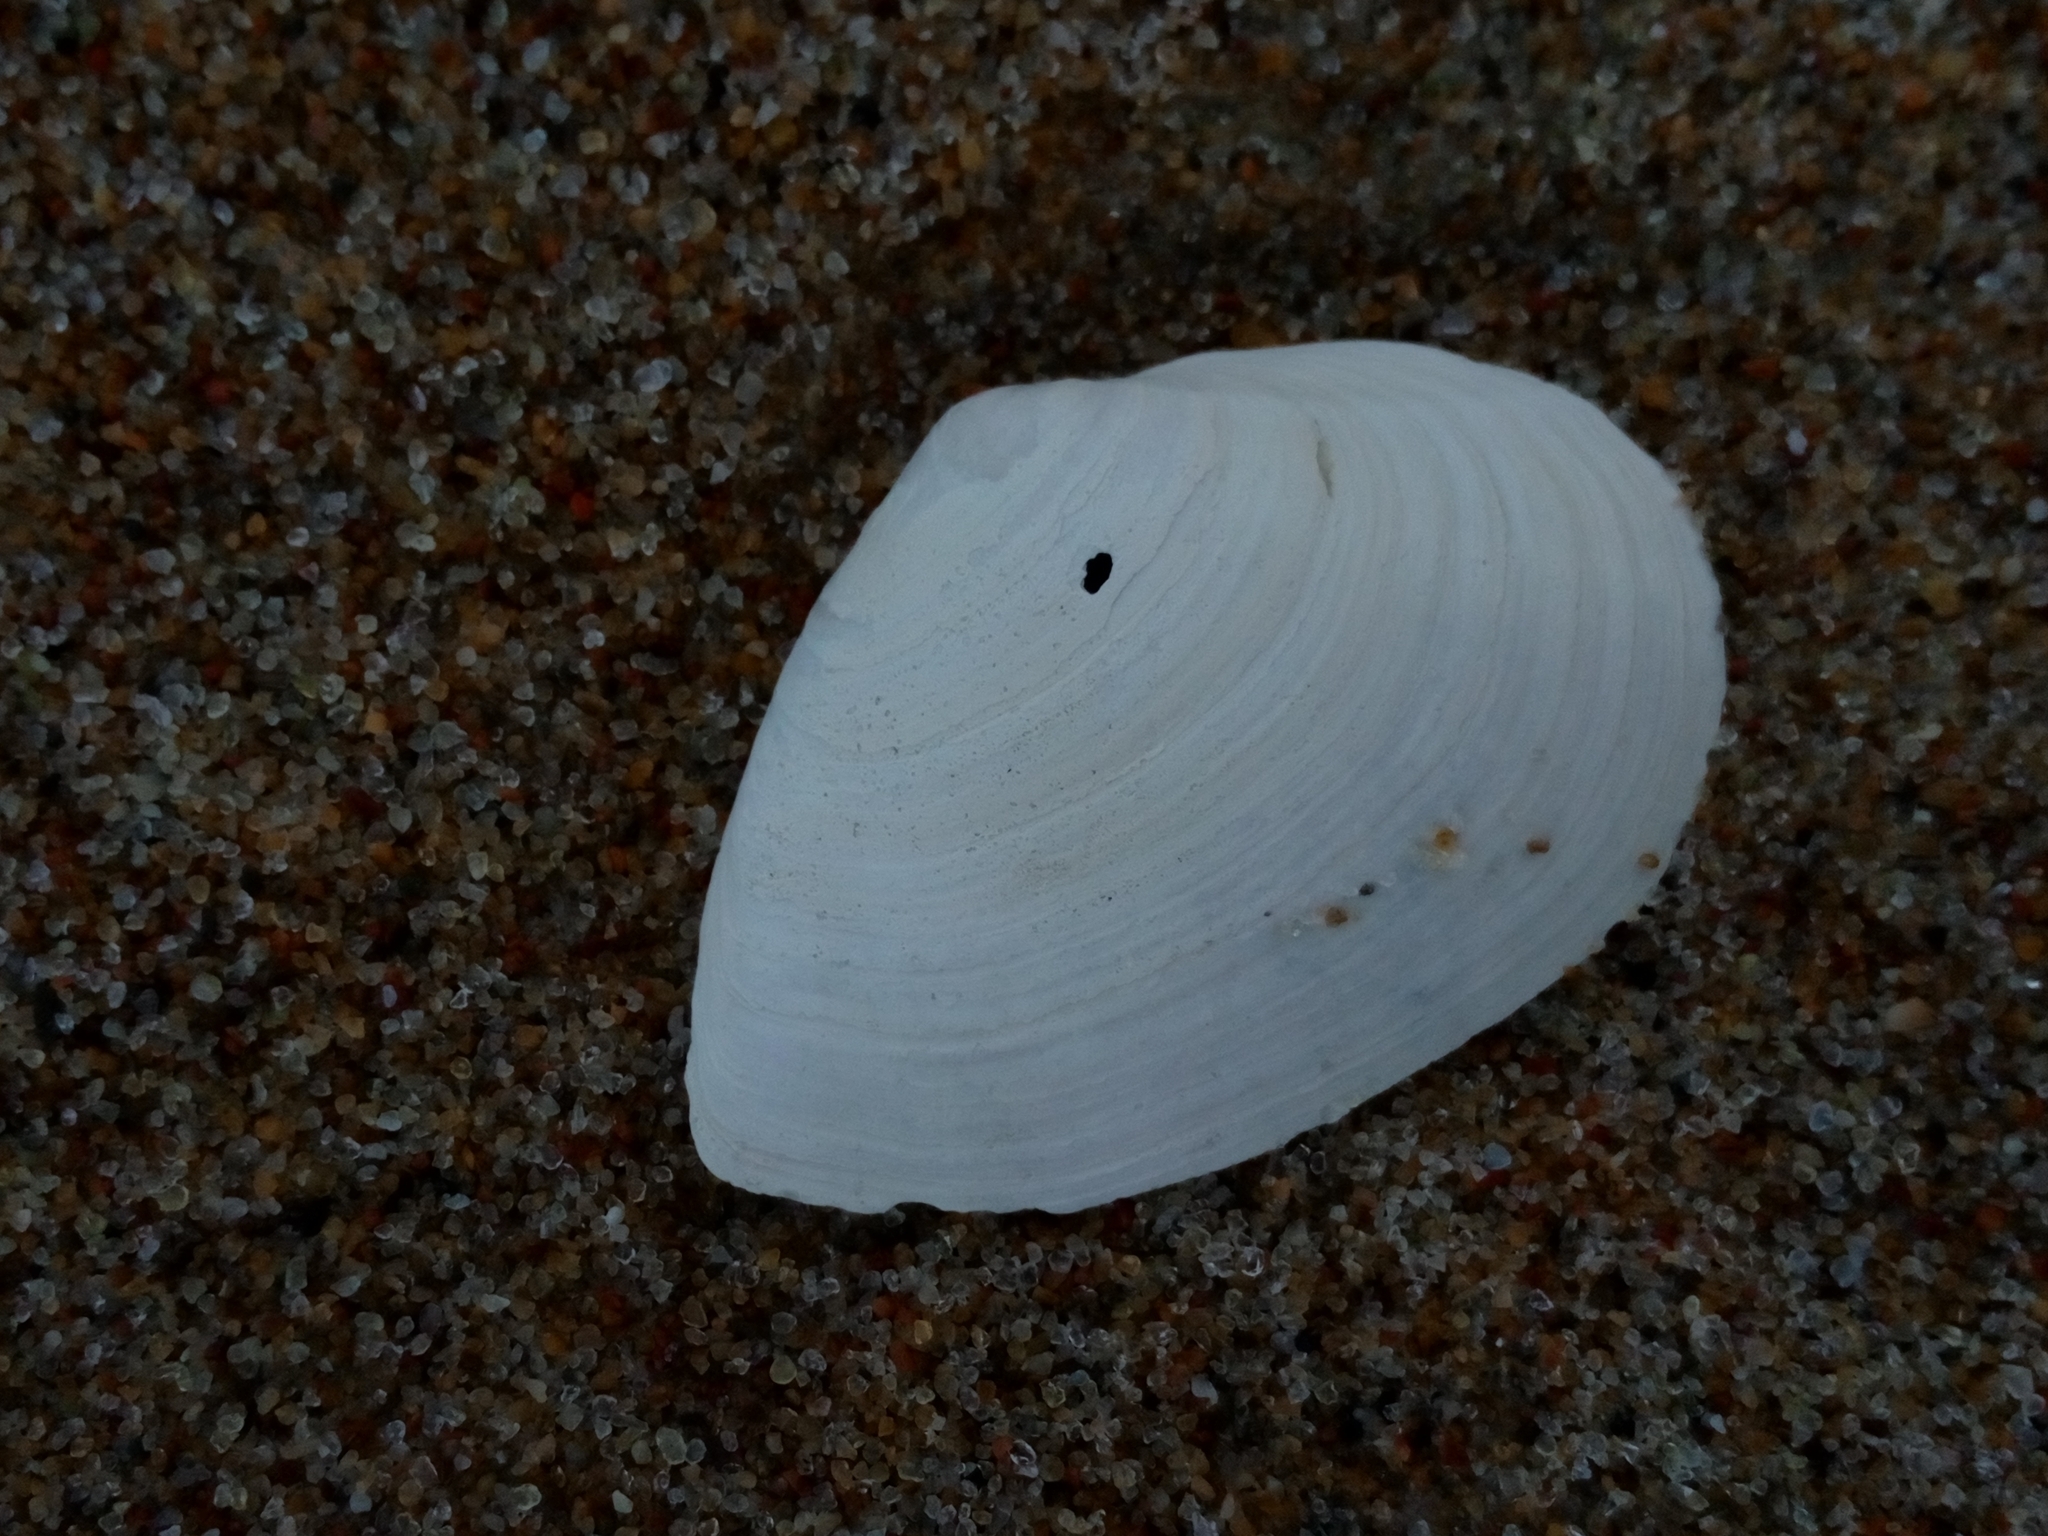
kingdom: Animalia
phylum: Mollusca
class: Bivalvia
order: Myida
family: Myidae
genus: Mya
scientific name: Mya arenaria
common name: Soft-shelled clam
